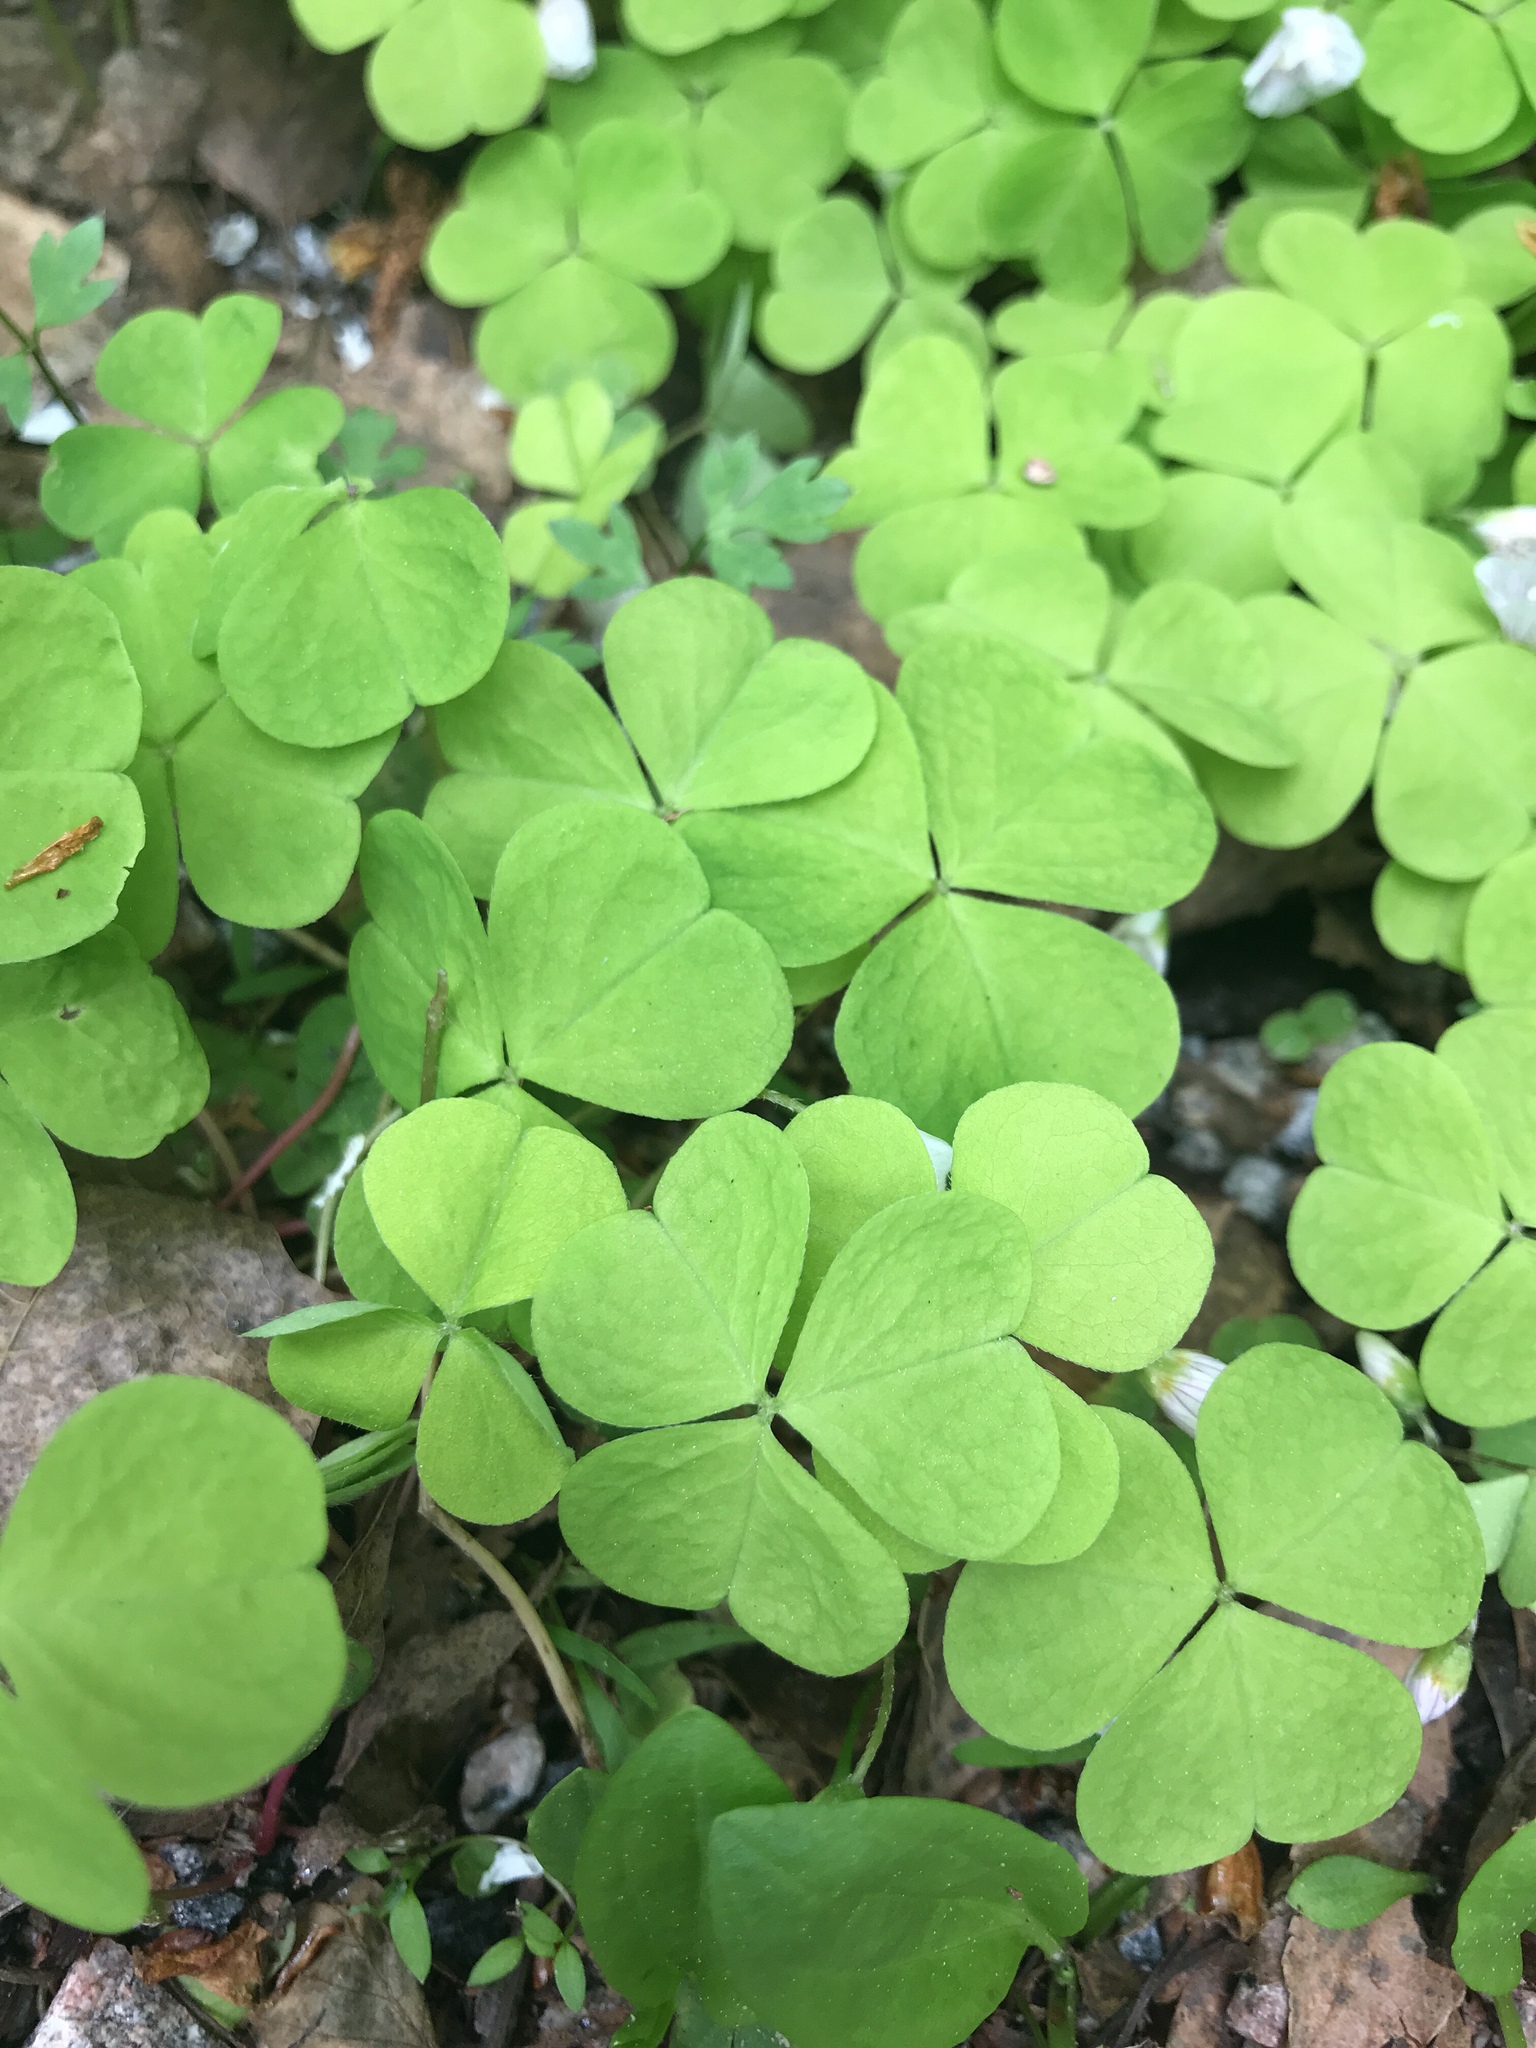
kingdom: Plantae
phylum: Tracheophyta
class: Magnoliopsida
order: Oxalidales
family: Oxalidaceae
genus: Oxalis
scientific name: Oxalis acetosella
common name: Wood-sorrel
